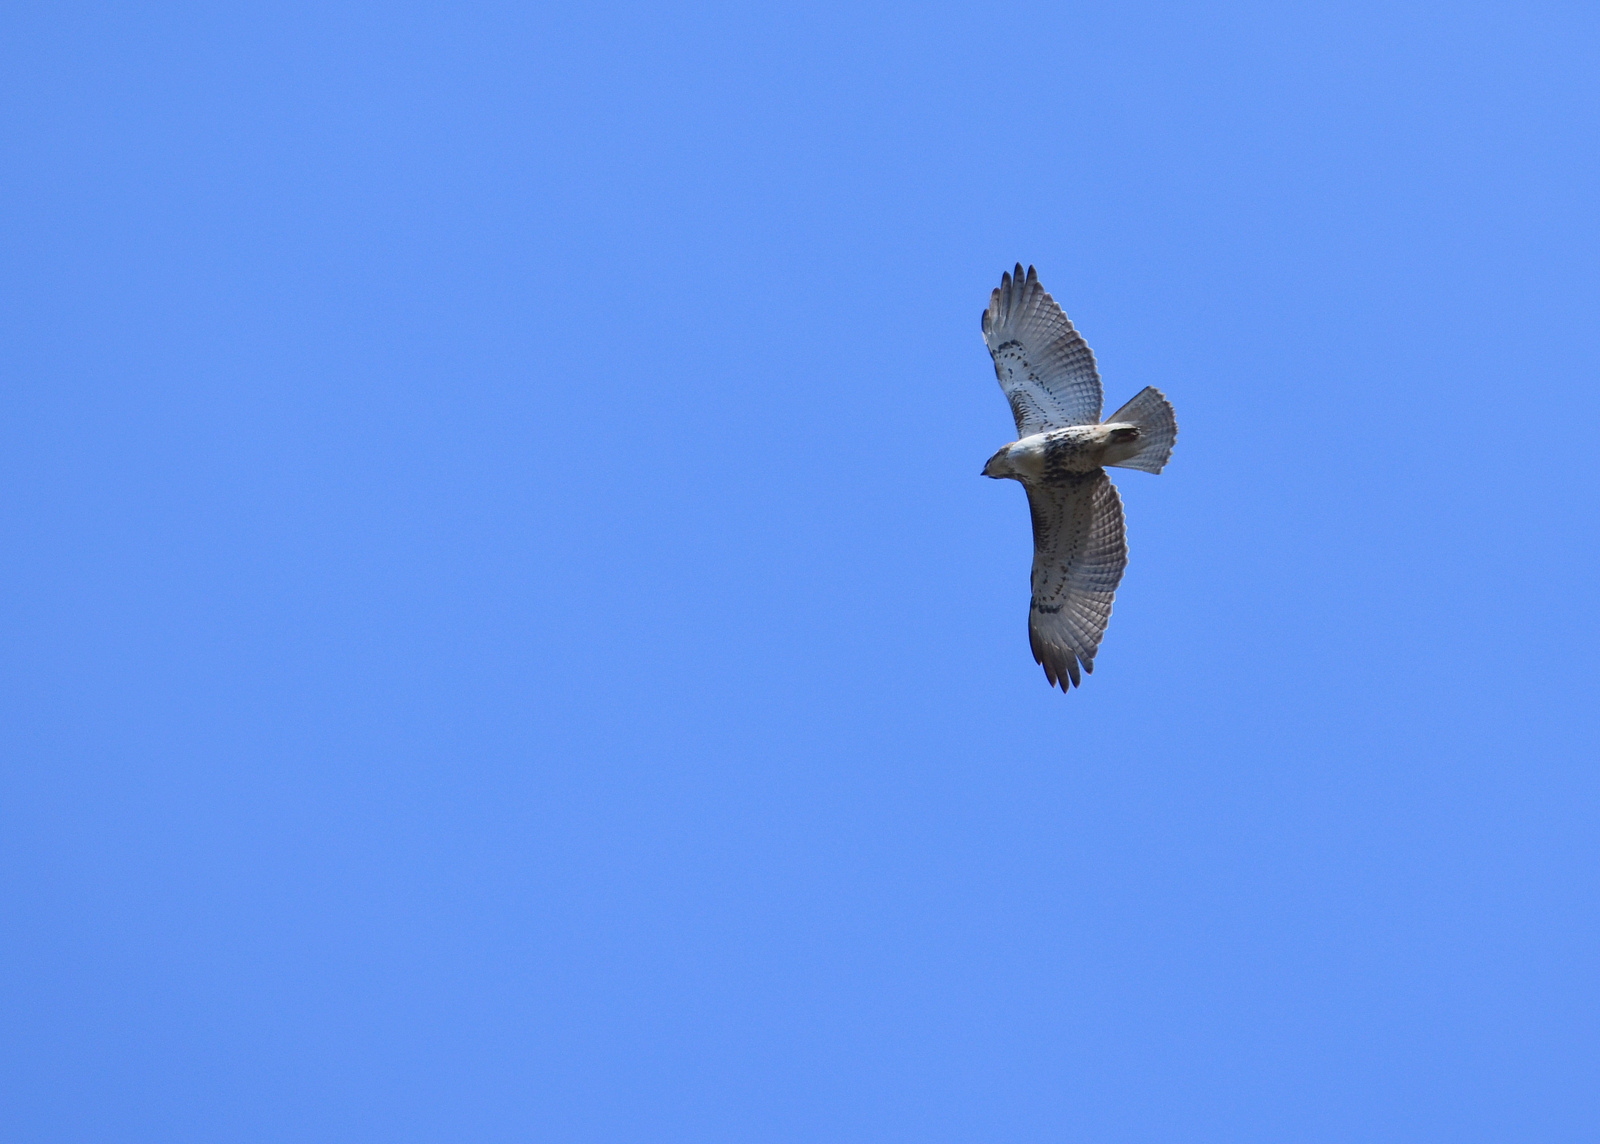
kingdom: Animalia
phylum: Chordata
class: Aves
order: Accipitriformes
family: Accipitridae
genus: Buteo
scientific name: Buteo jamaicensis
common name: Red-tailed hawk
